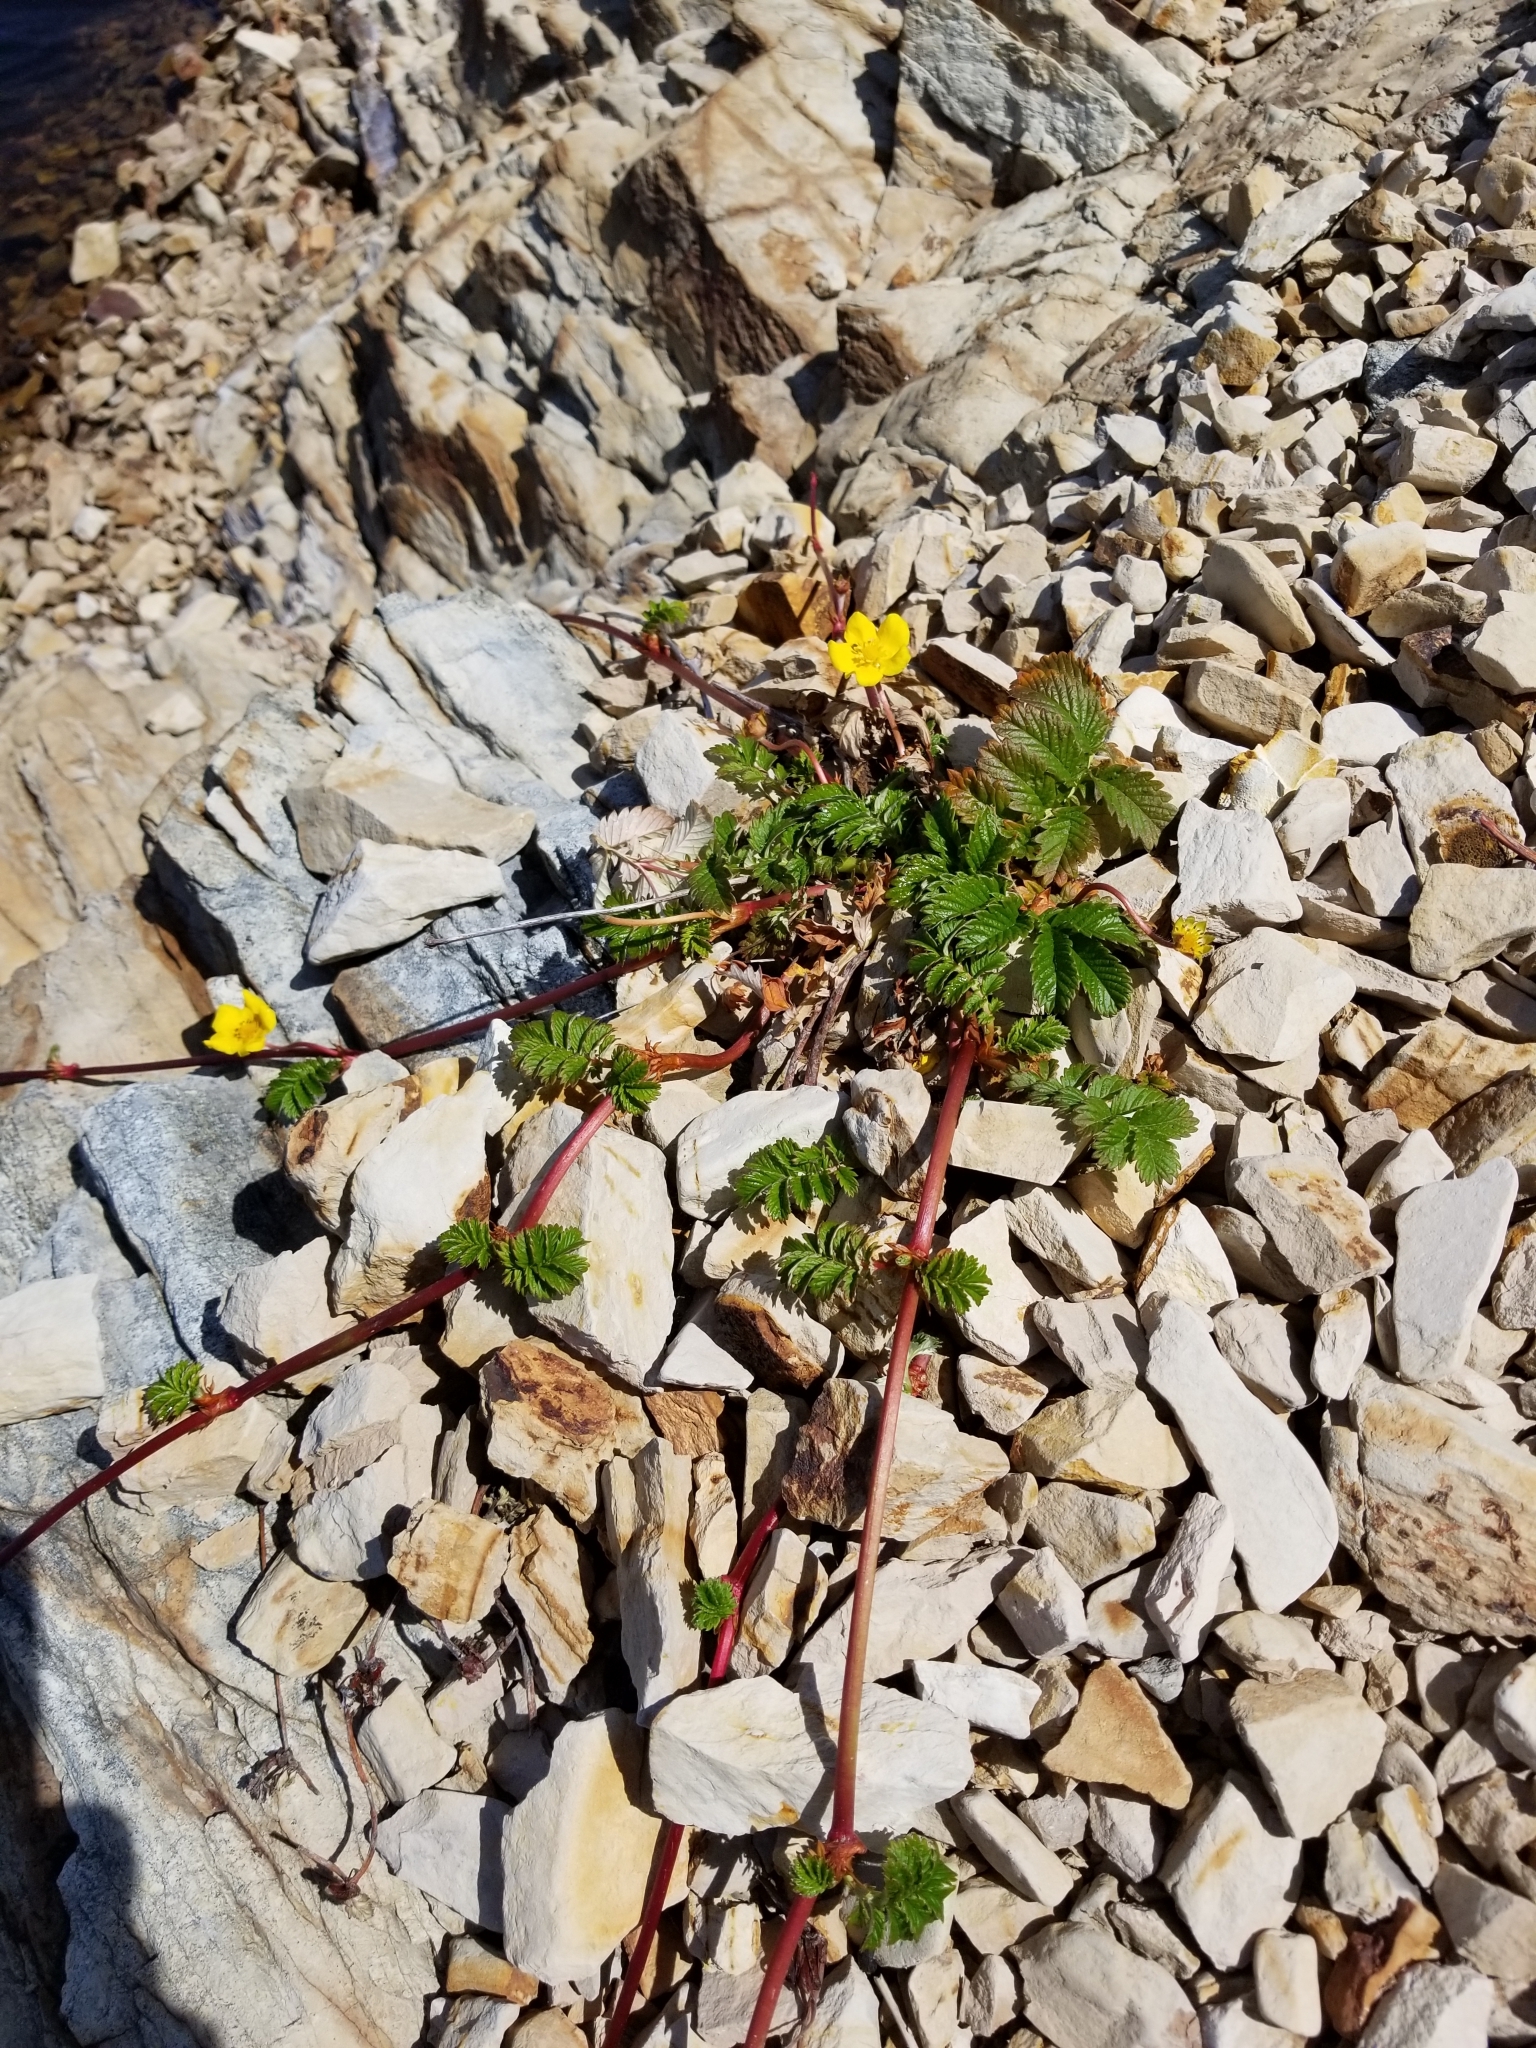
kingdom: Plantae
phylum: Tracheophyta
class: Magnoliopsida
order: Rosales
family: Rosaceae
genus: Argentina
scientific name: Argentina anserina
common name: Common silverweed
